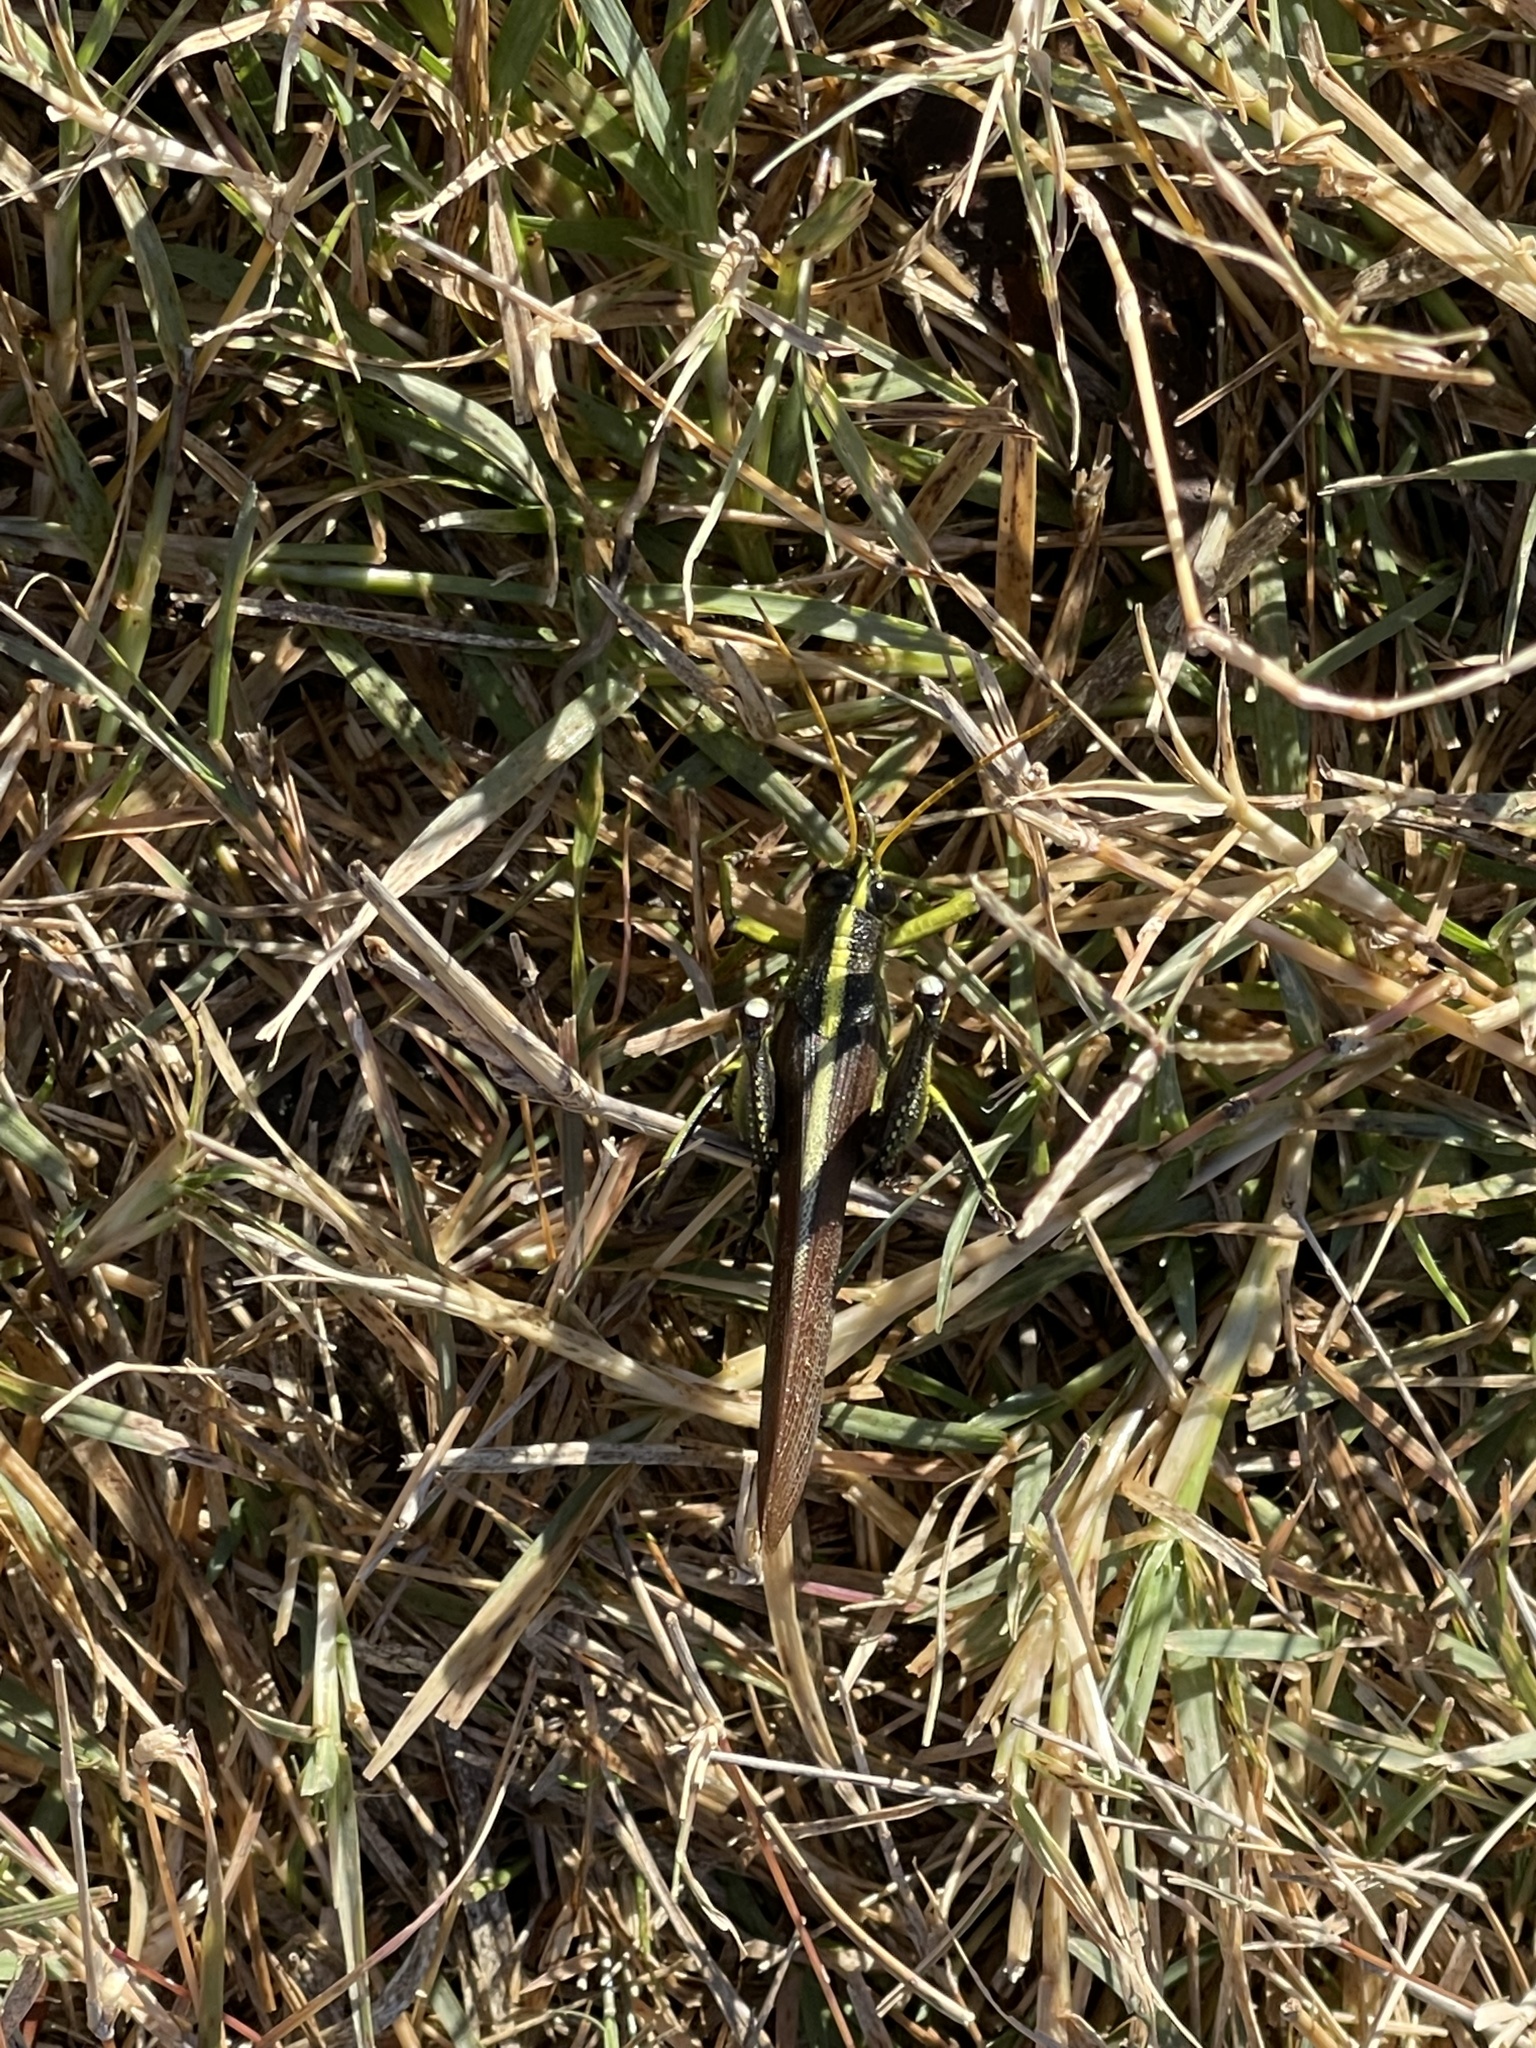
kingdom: Animalia
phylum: Arthropoda
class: Insecta
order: Orthoptera
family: Acrididae
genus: Schistocerca
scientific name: Schistocerca obscura
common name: Obscure bird grasshopper
